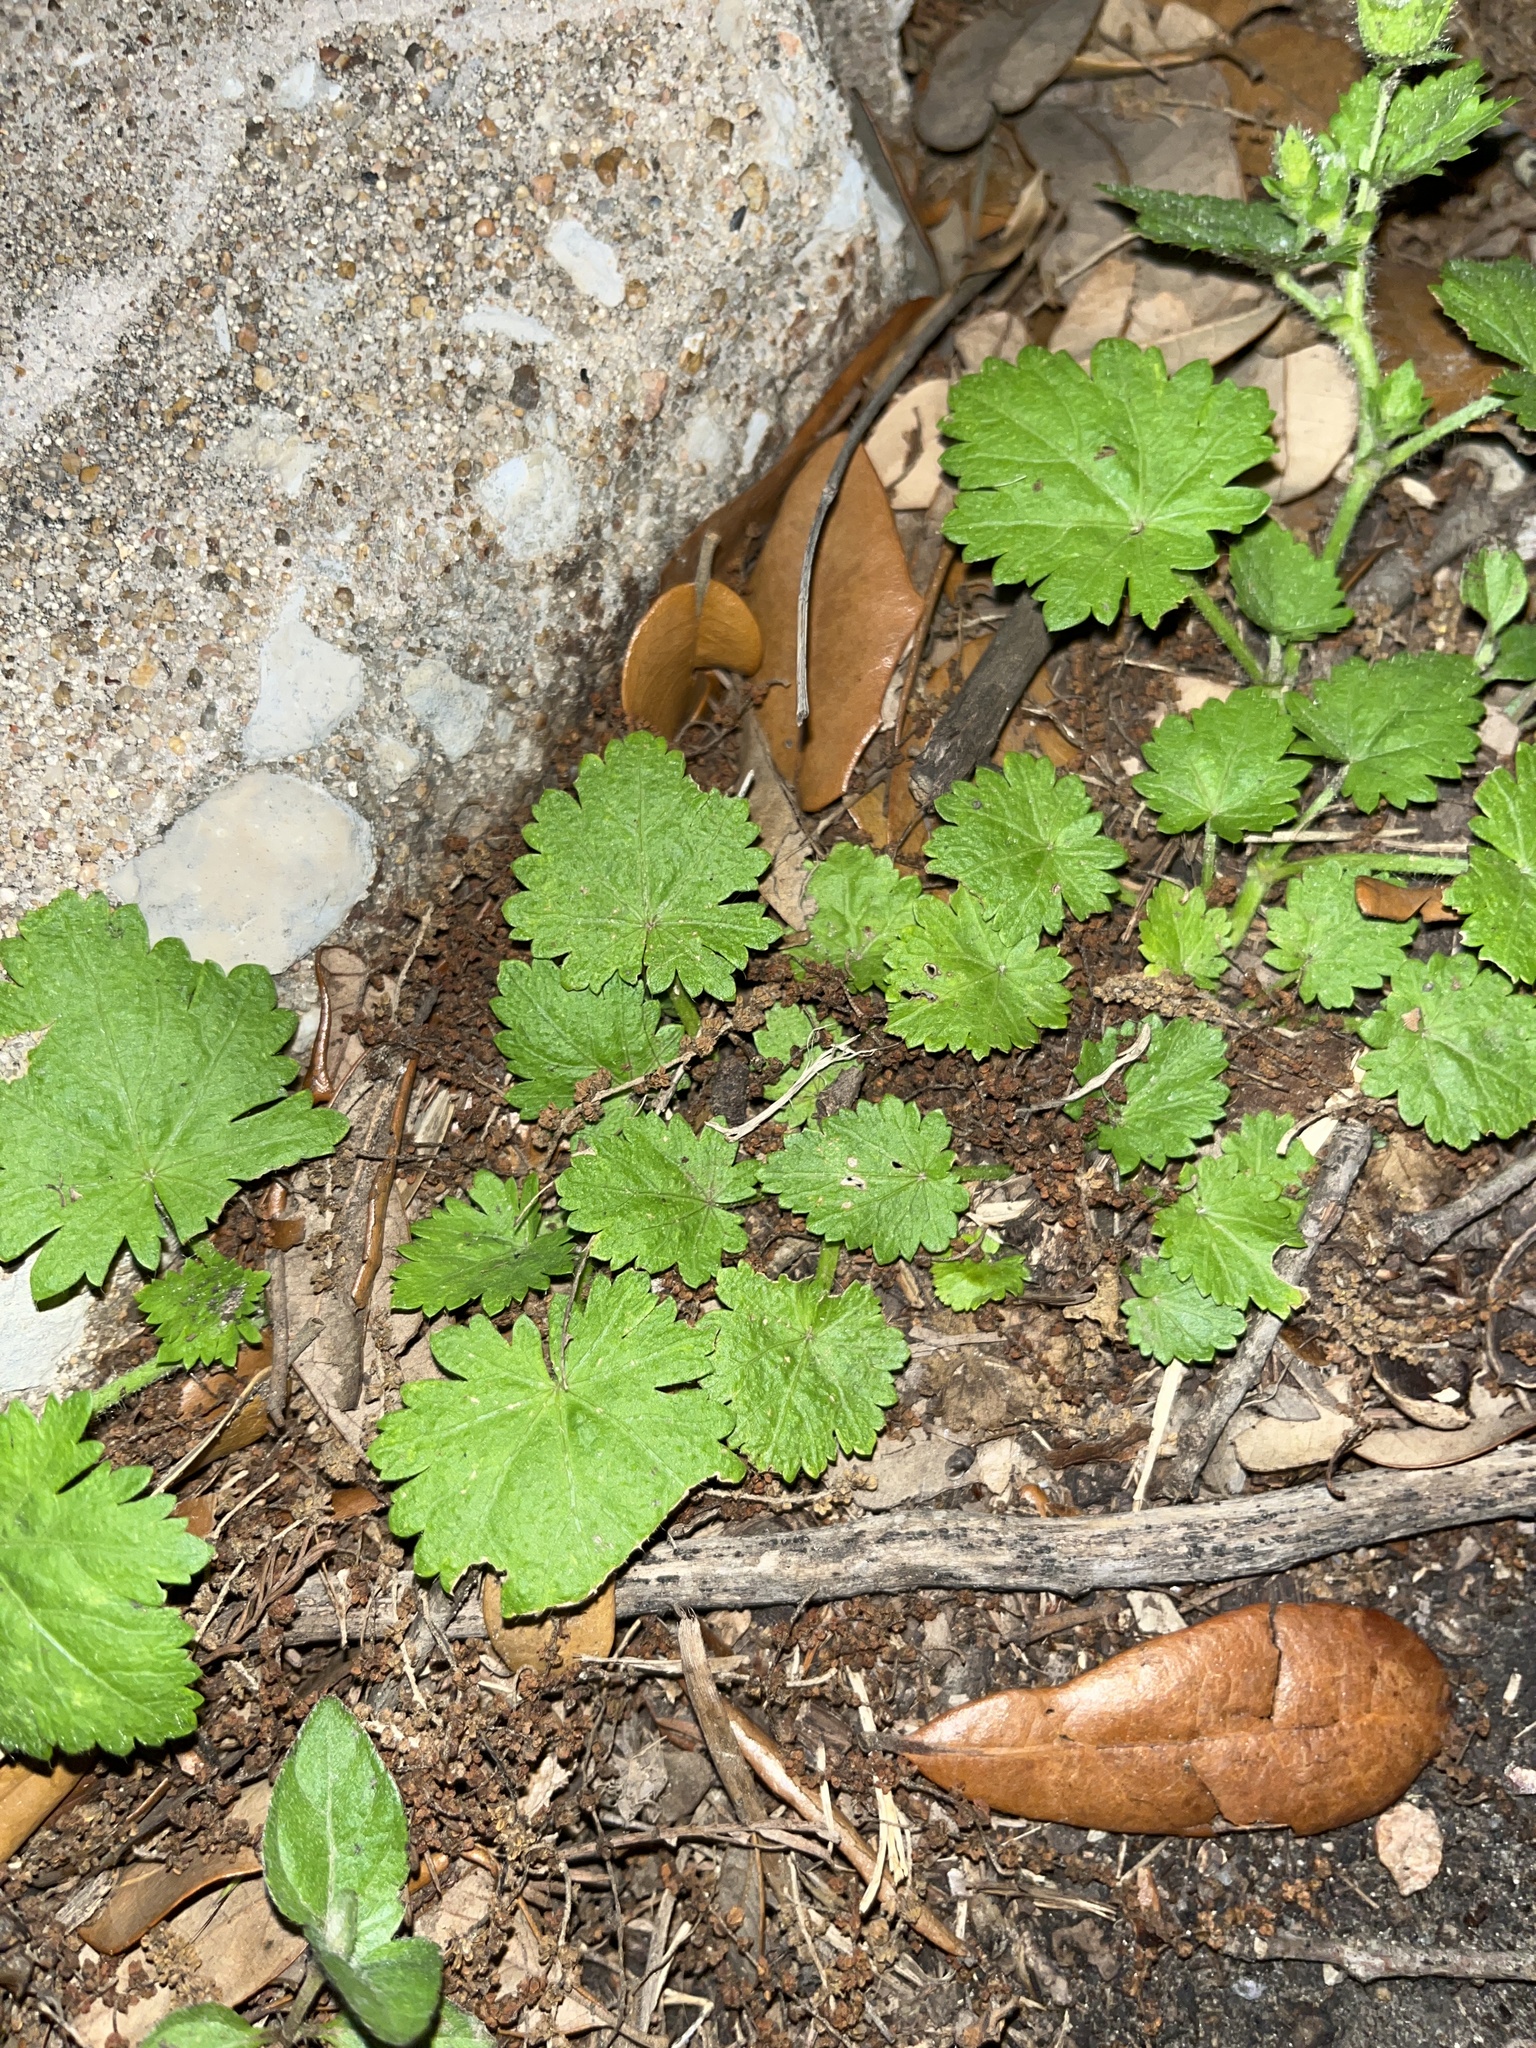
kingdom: Plantae
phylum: Tracheophyta
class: Magnoliopsida
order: Malvales
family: Malvaceae
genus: Modiola
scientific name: Modiola caroliniana
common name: Carolina bristlemallow
